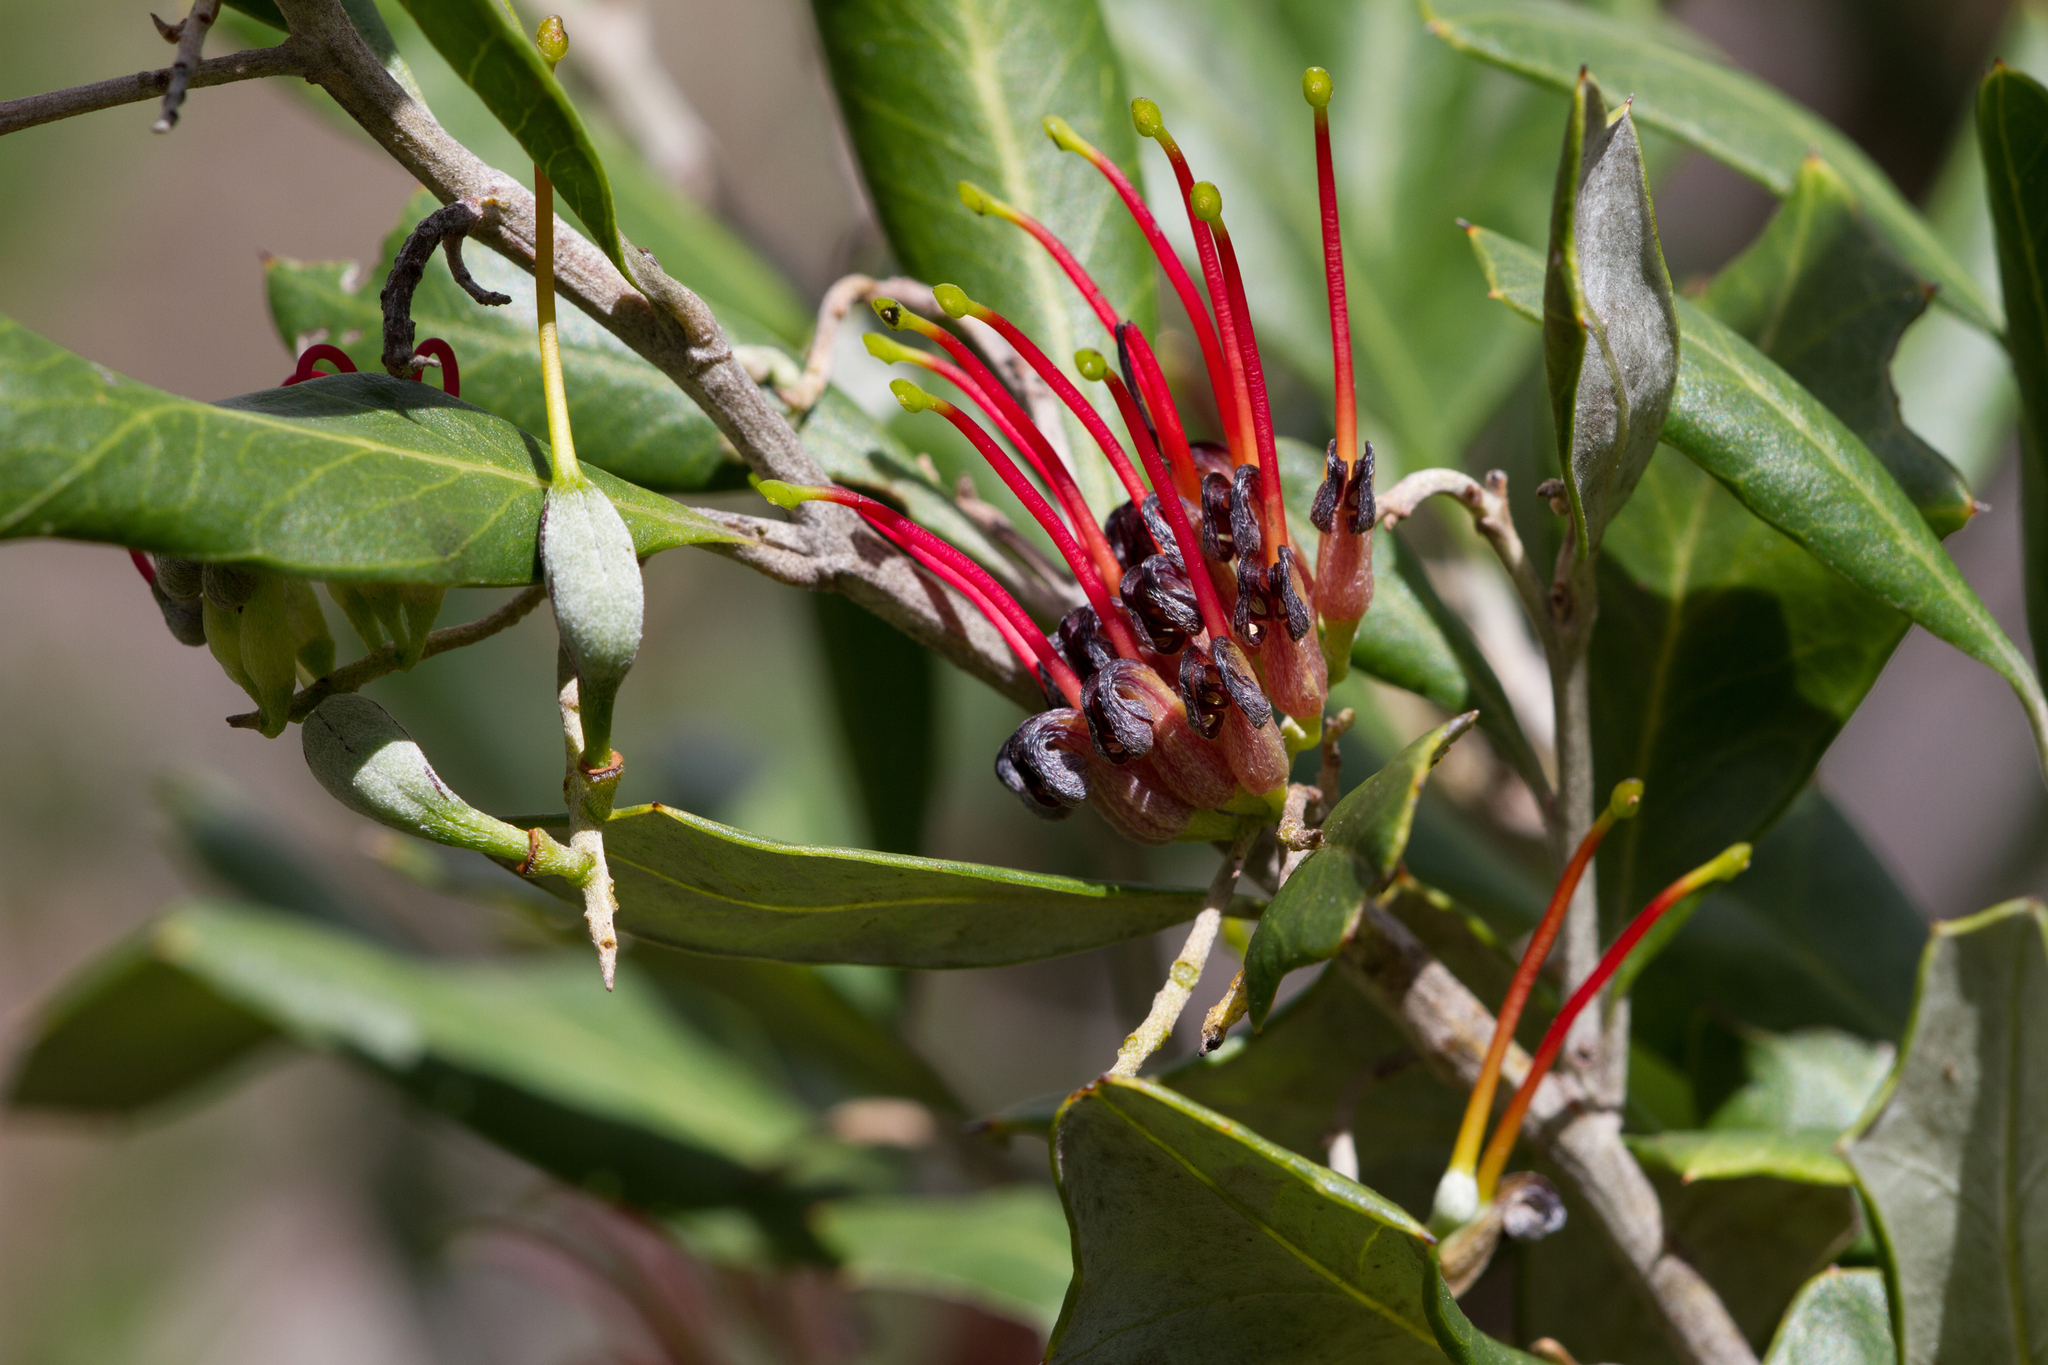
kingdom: Plantae
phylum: Tracheophyta
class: Magnoliopsida
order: Proteales
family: Proteaceae
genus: Grevillea
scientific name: Grevillea ilicifolia
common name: Holly grevillea
